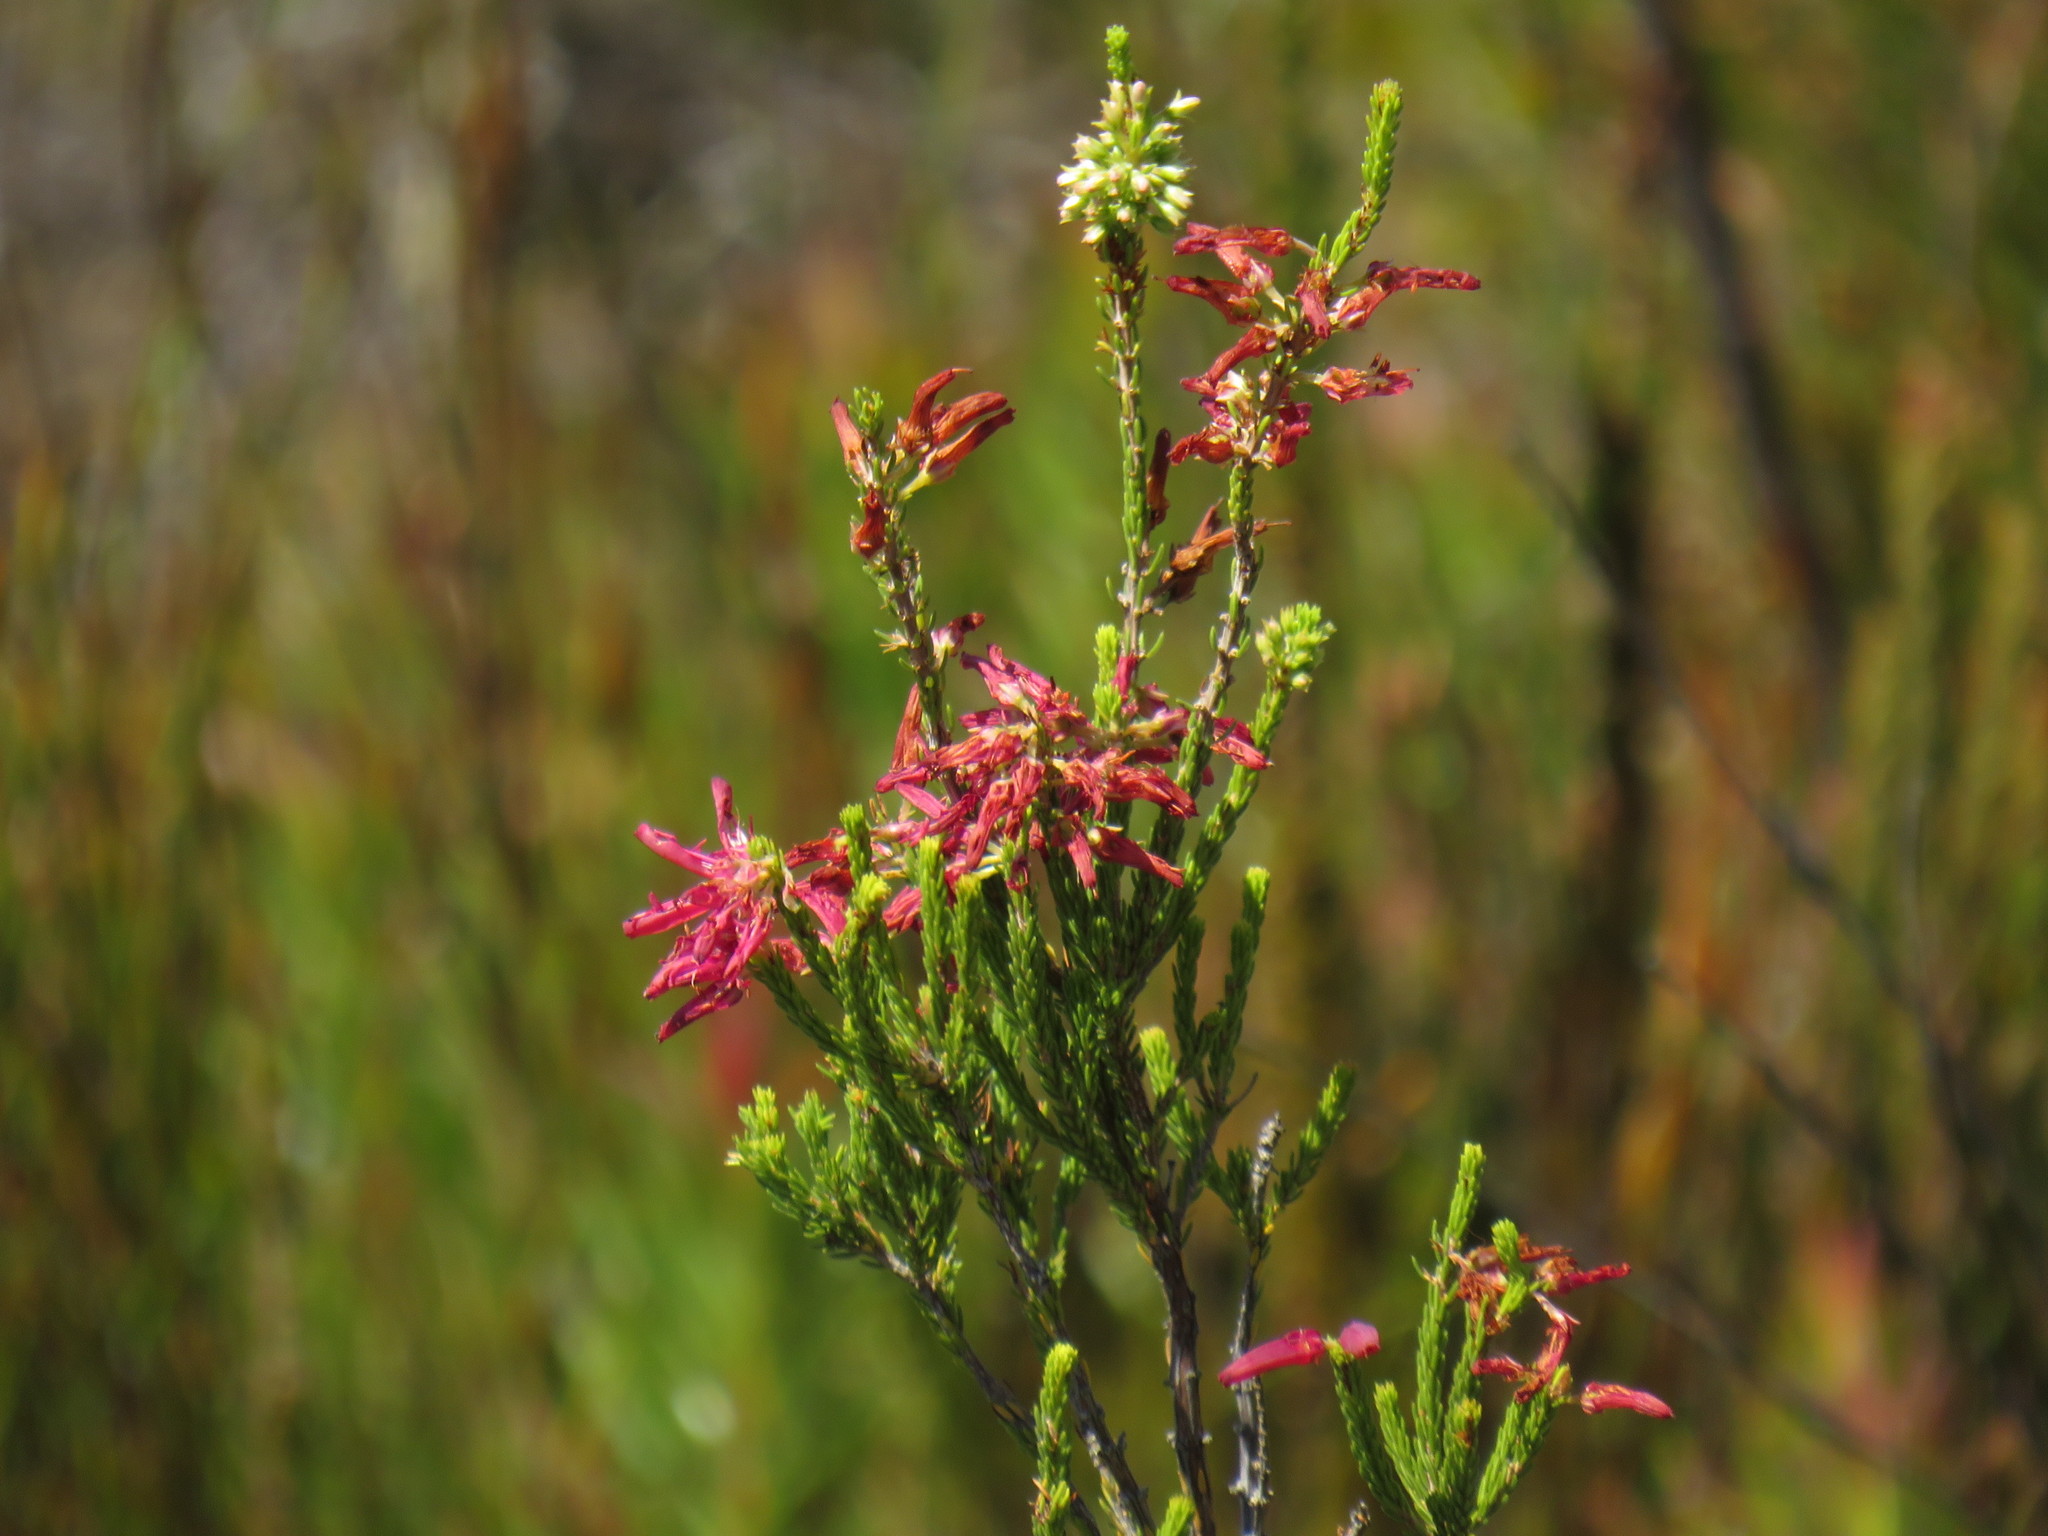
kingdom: Plantae
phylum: Tracheophyta
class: Magnoliopsida
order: Ericales
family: Ericaceae
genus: Erica
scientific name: Erica mammosa
